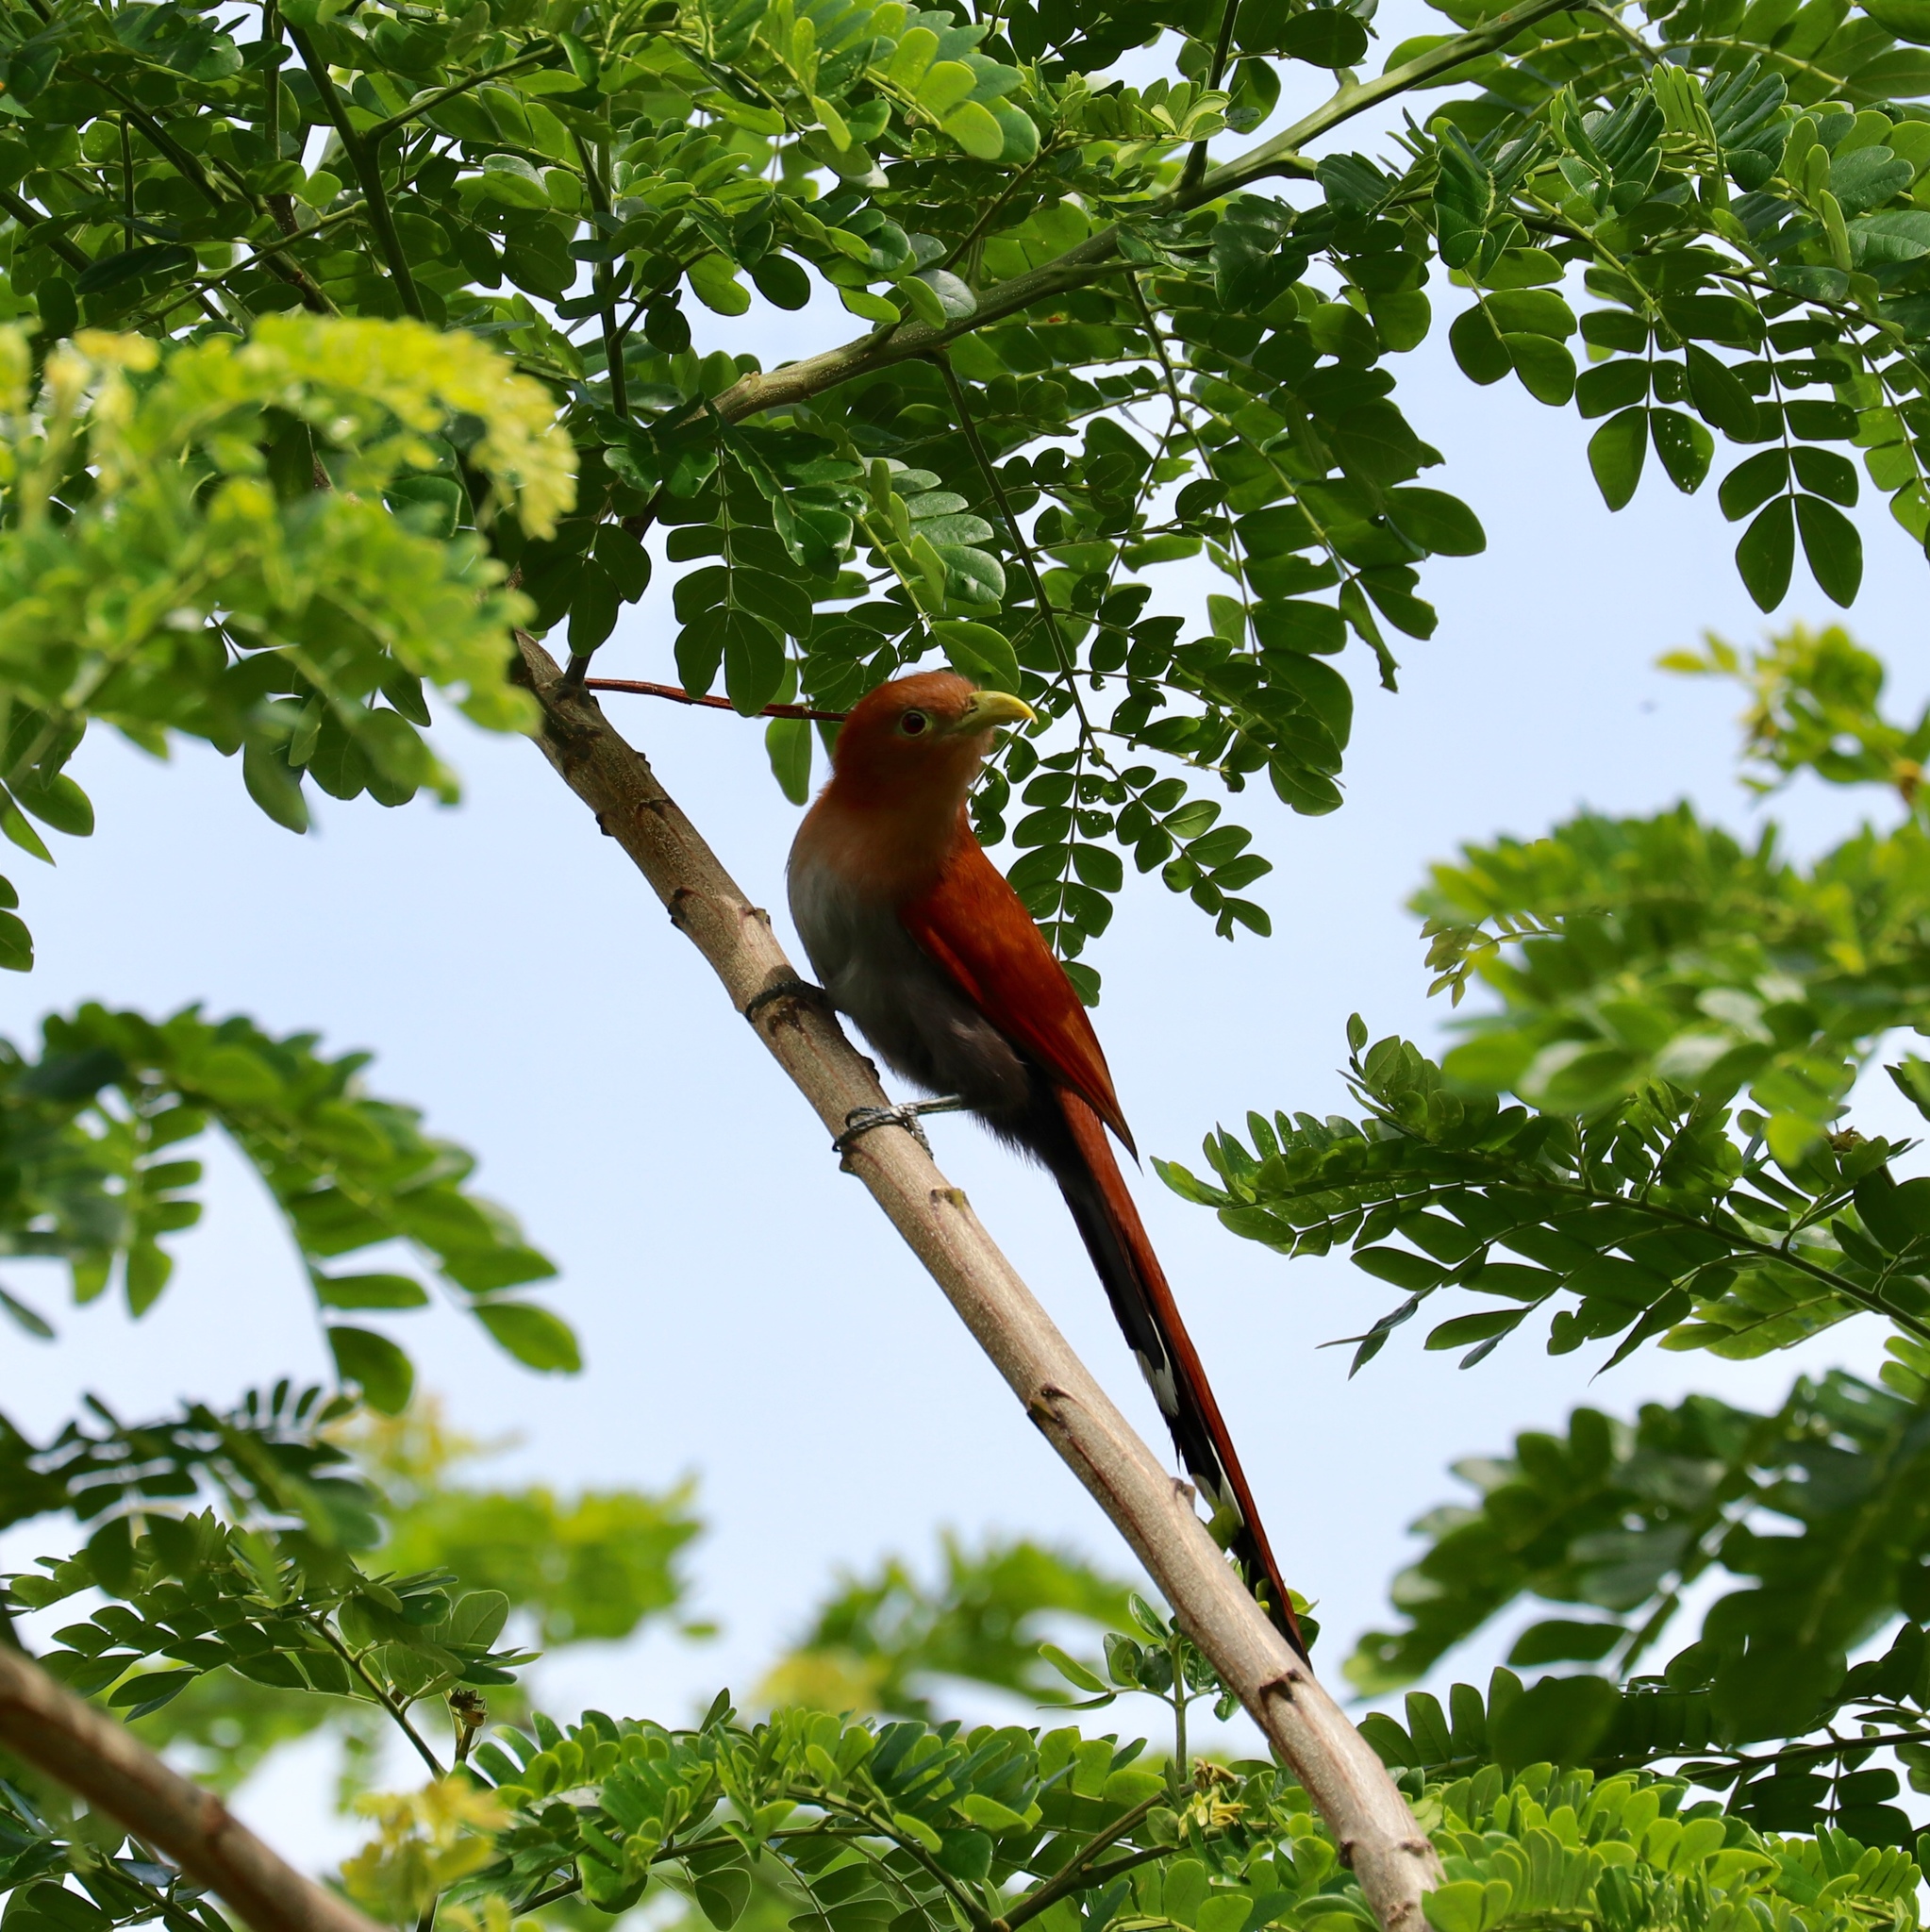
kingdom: Animalia
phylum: Chordata
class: Aves
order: Cuculiformes
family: Cuculidae
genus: Piaya
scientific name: Piaya cayana
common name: Squirrel cuckoo
